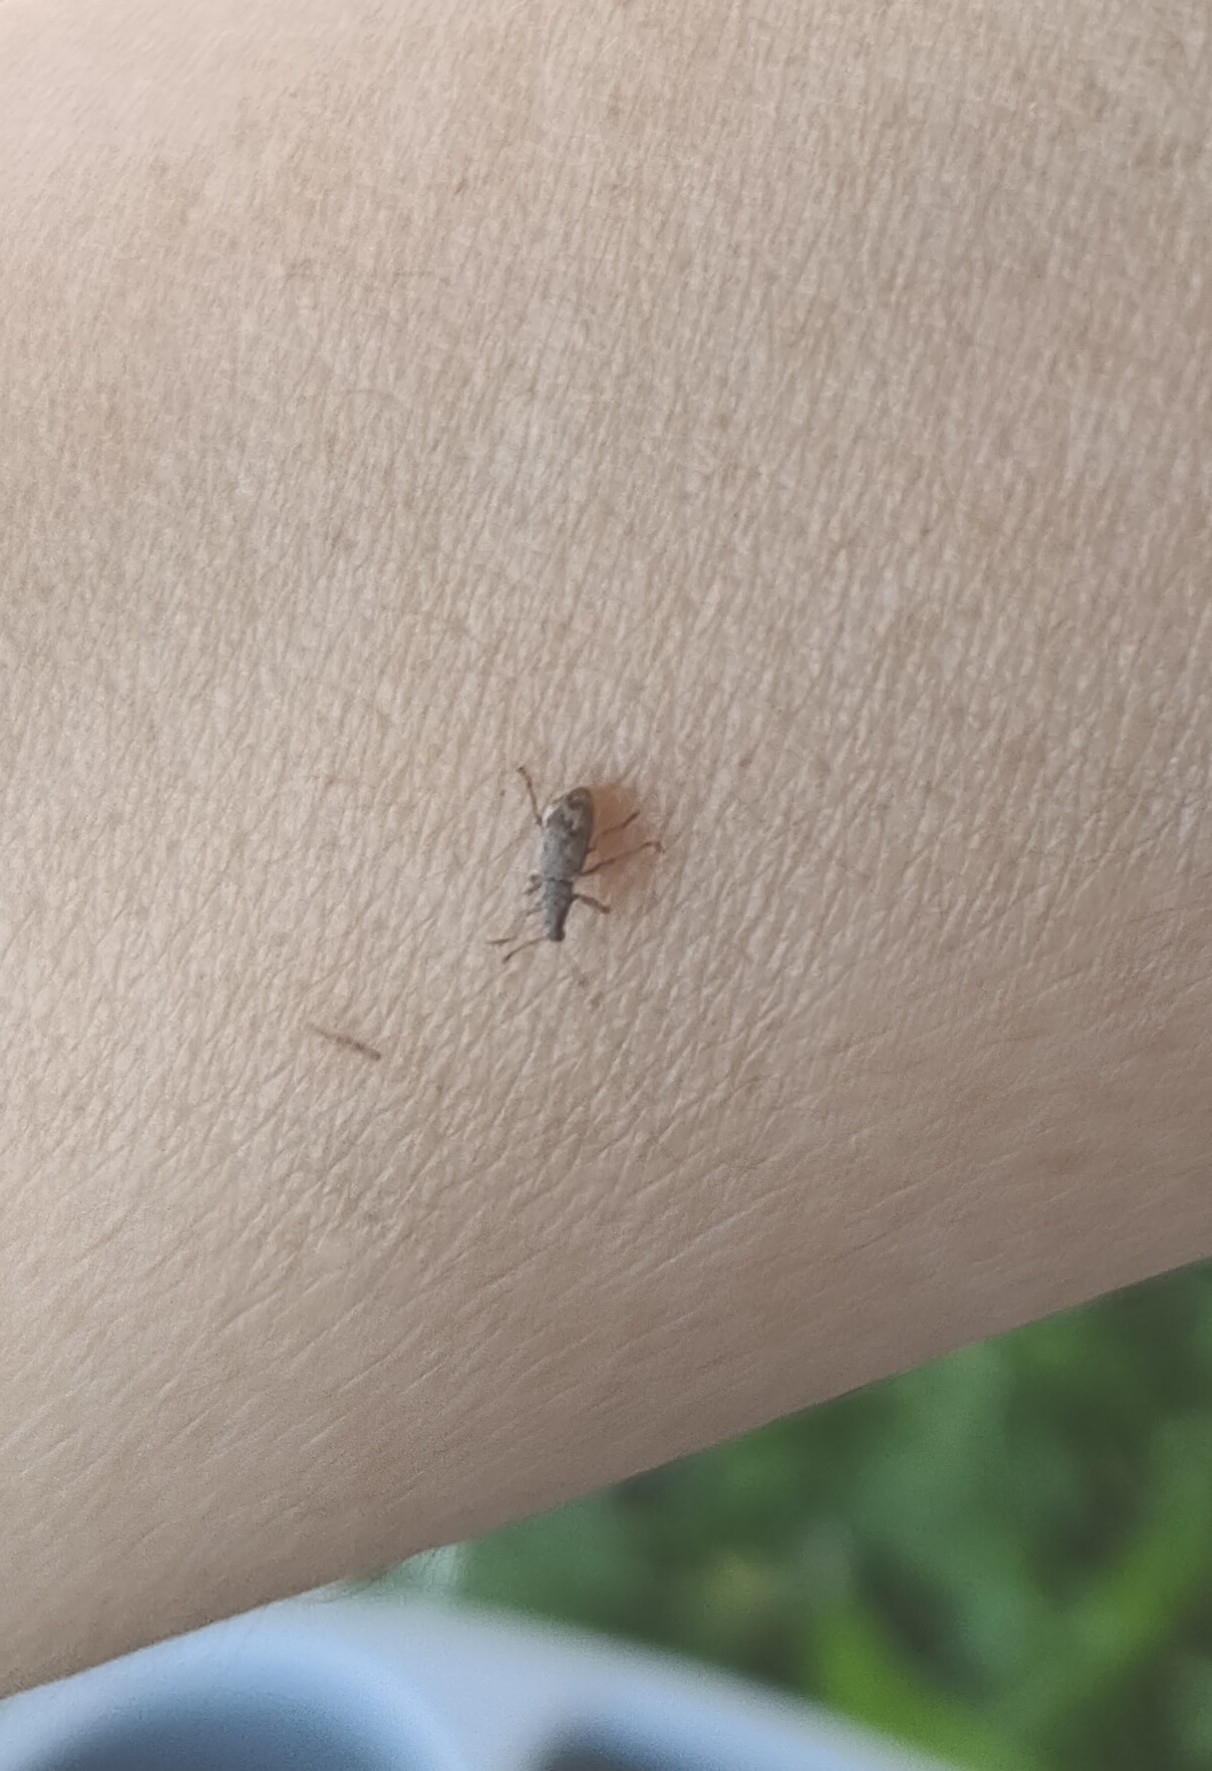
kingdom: Animalia
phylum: Arthropoda
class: Insecta
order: Coleoptera
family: Curculionidae
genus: Polydrusus
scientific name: Polydrusus tereticollis
